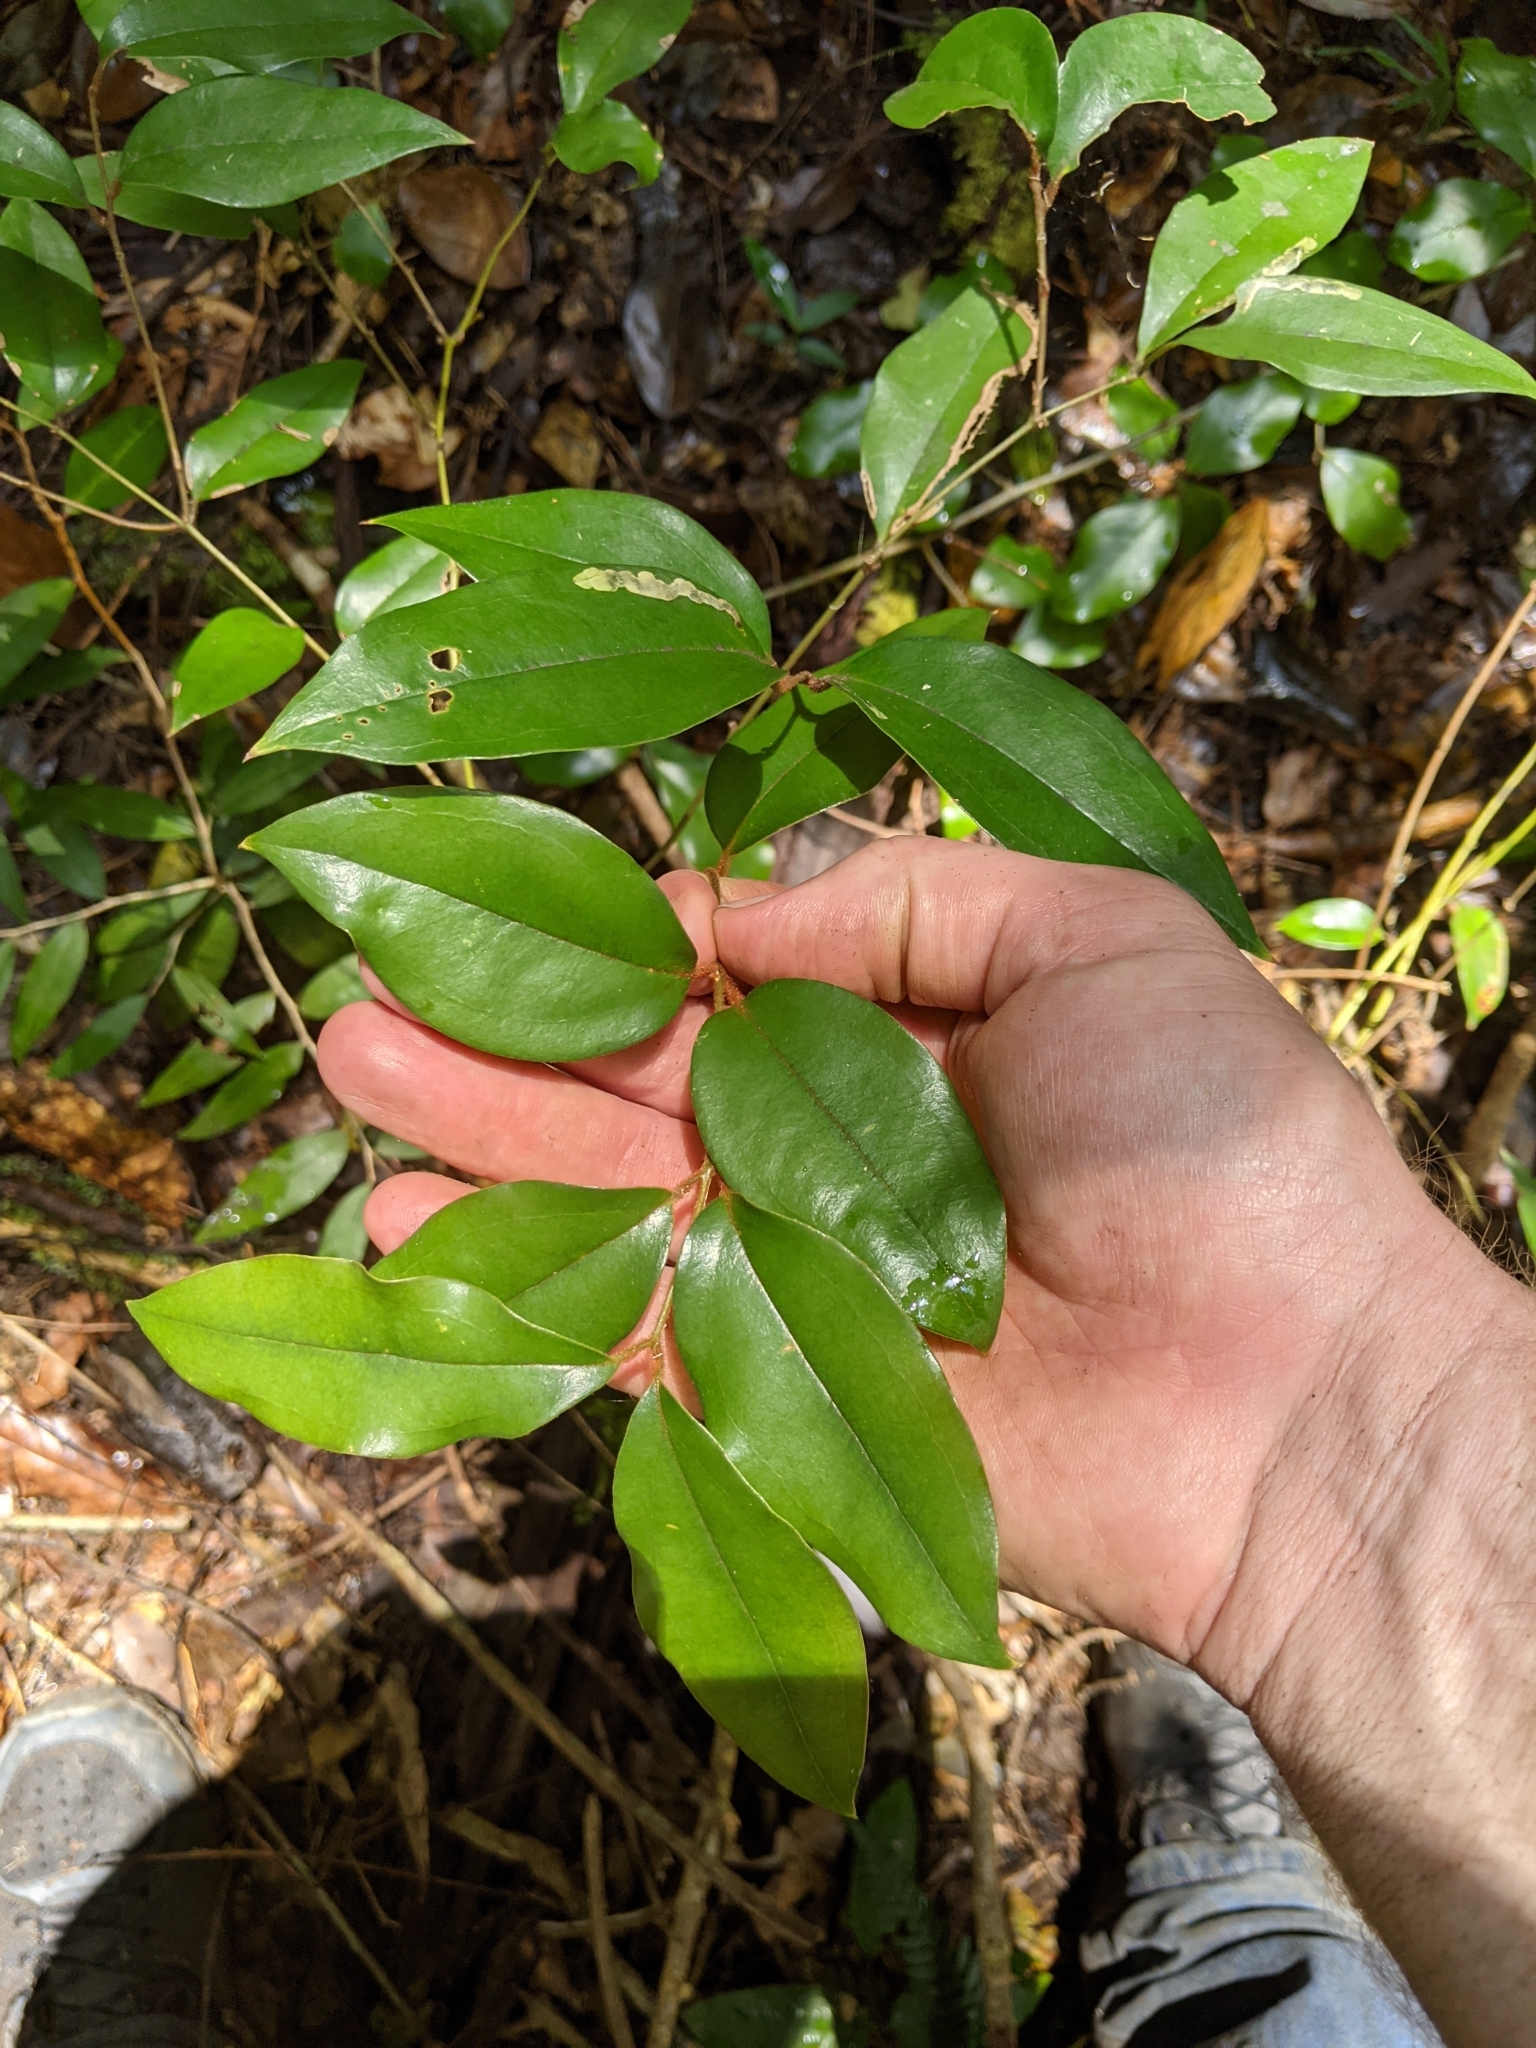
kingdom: Plantae
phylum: Tracheophyta
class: Liliopsida
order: Liliales
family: Ripogonaceae
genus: Ripogonum
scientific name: Ripogonum brevifolium
